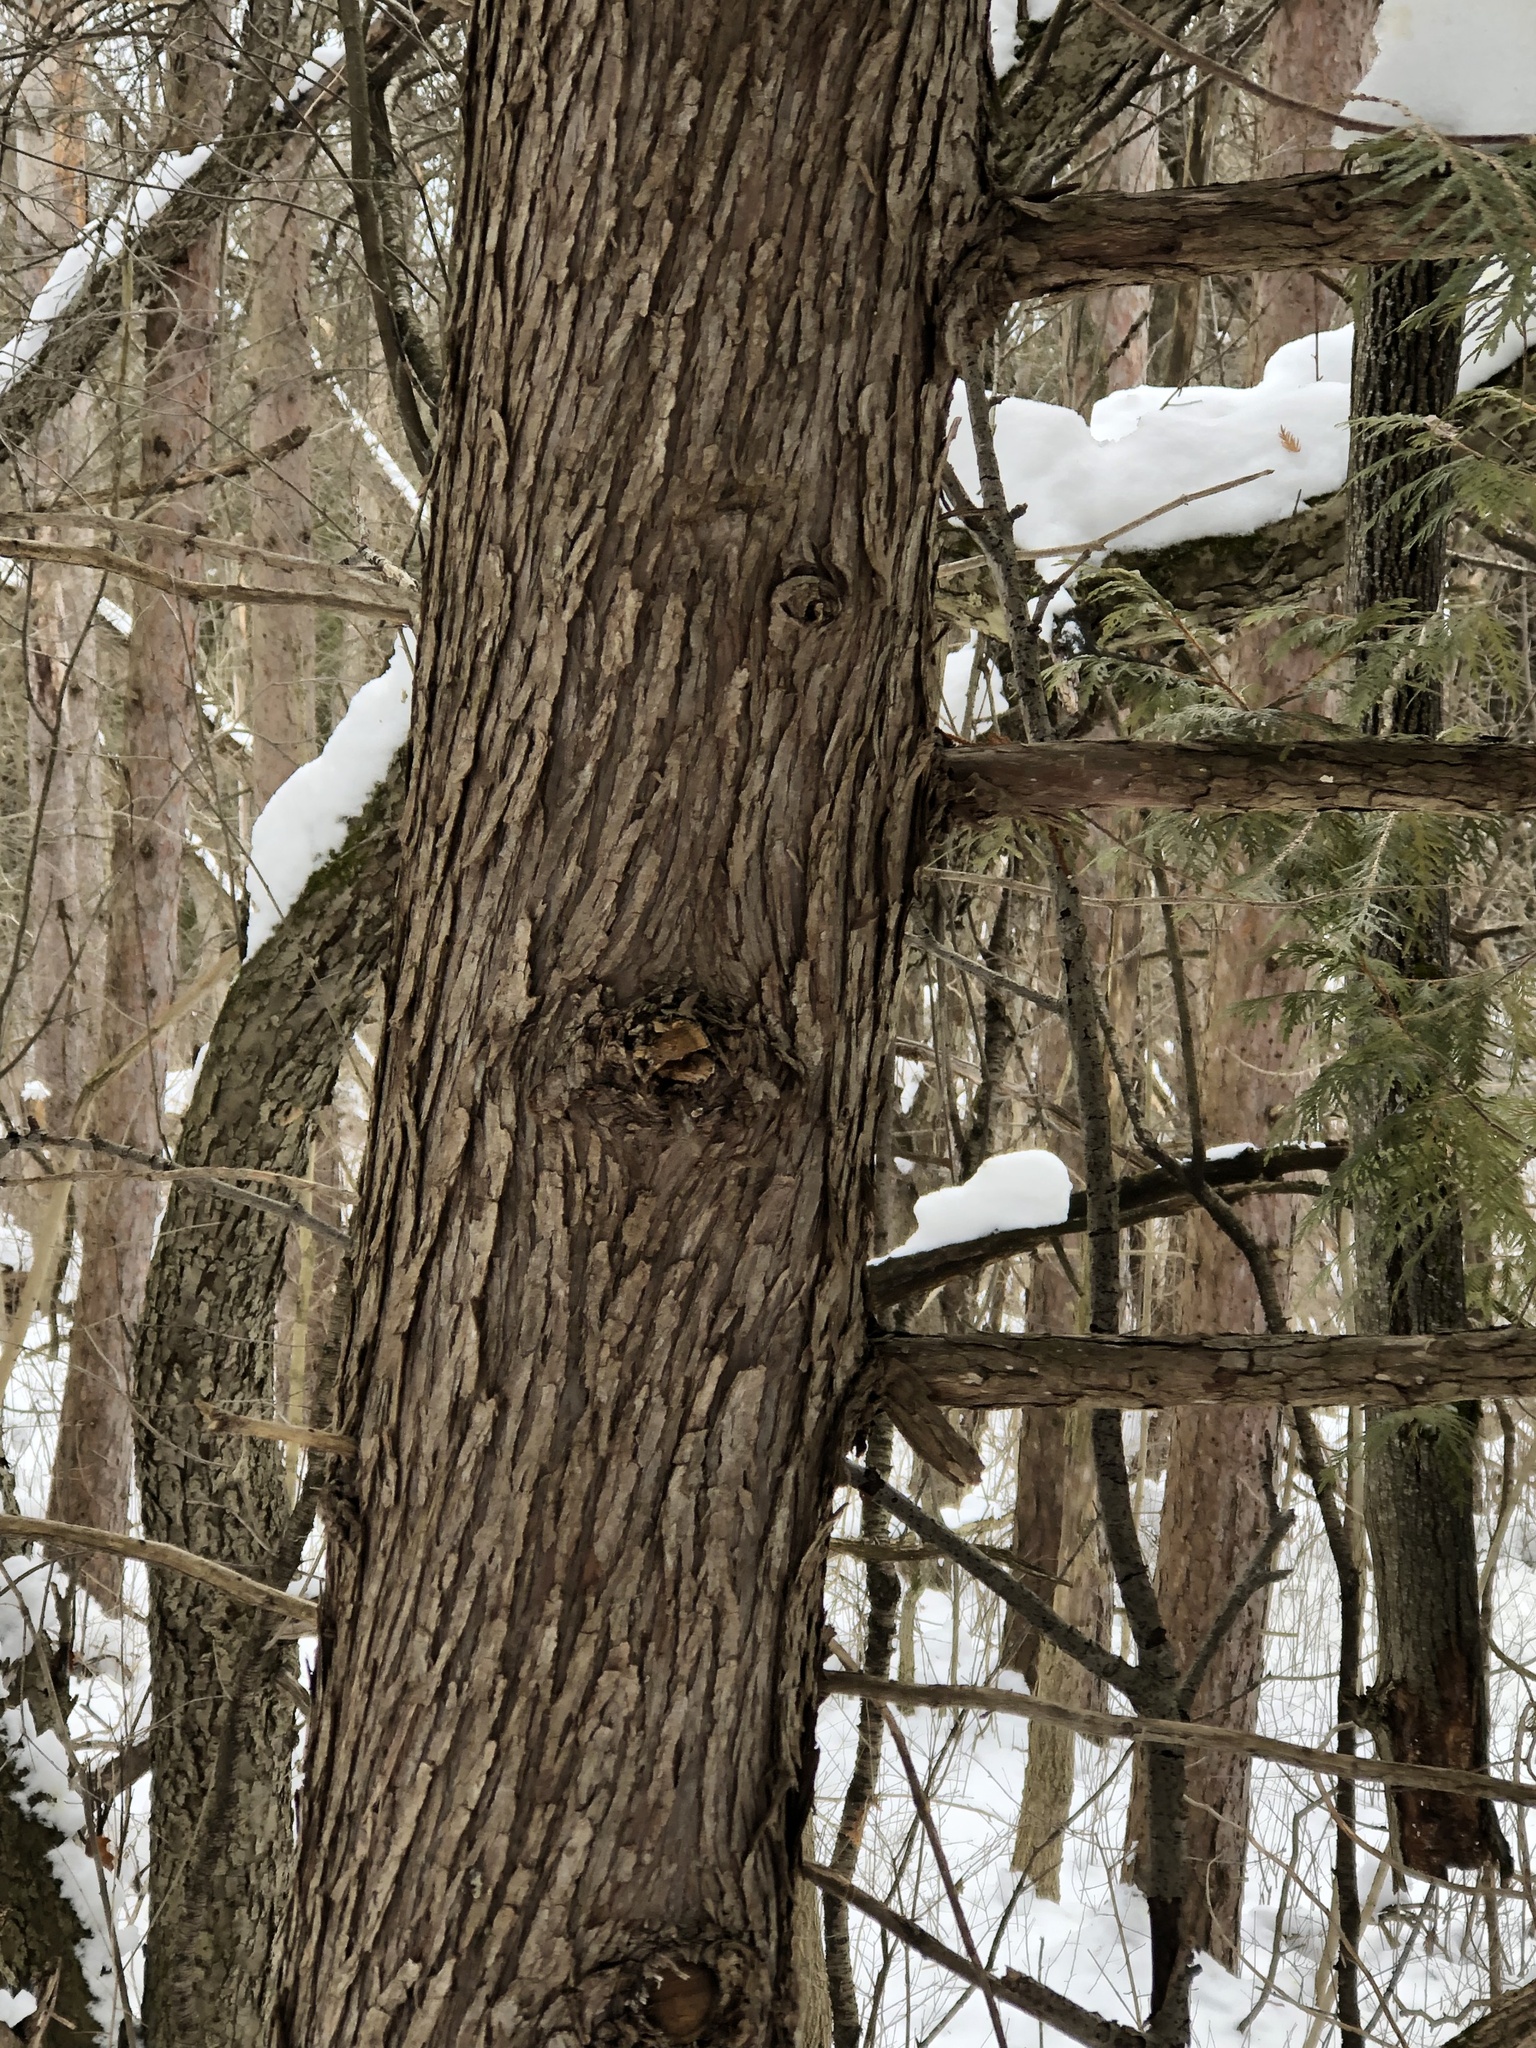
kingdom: Plantae
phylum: Tracheophyta
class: Pinopsida
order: Pinales
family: Cupressaceae
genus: Thuja
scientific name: Thuja occidentalis
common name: Northern white-cedar
